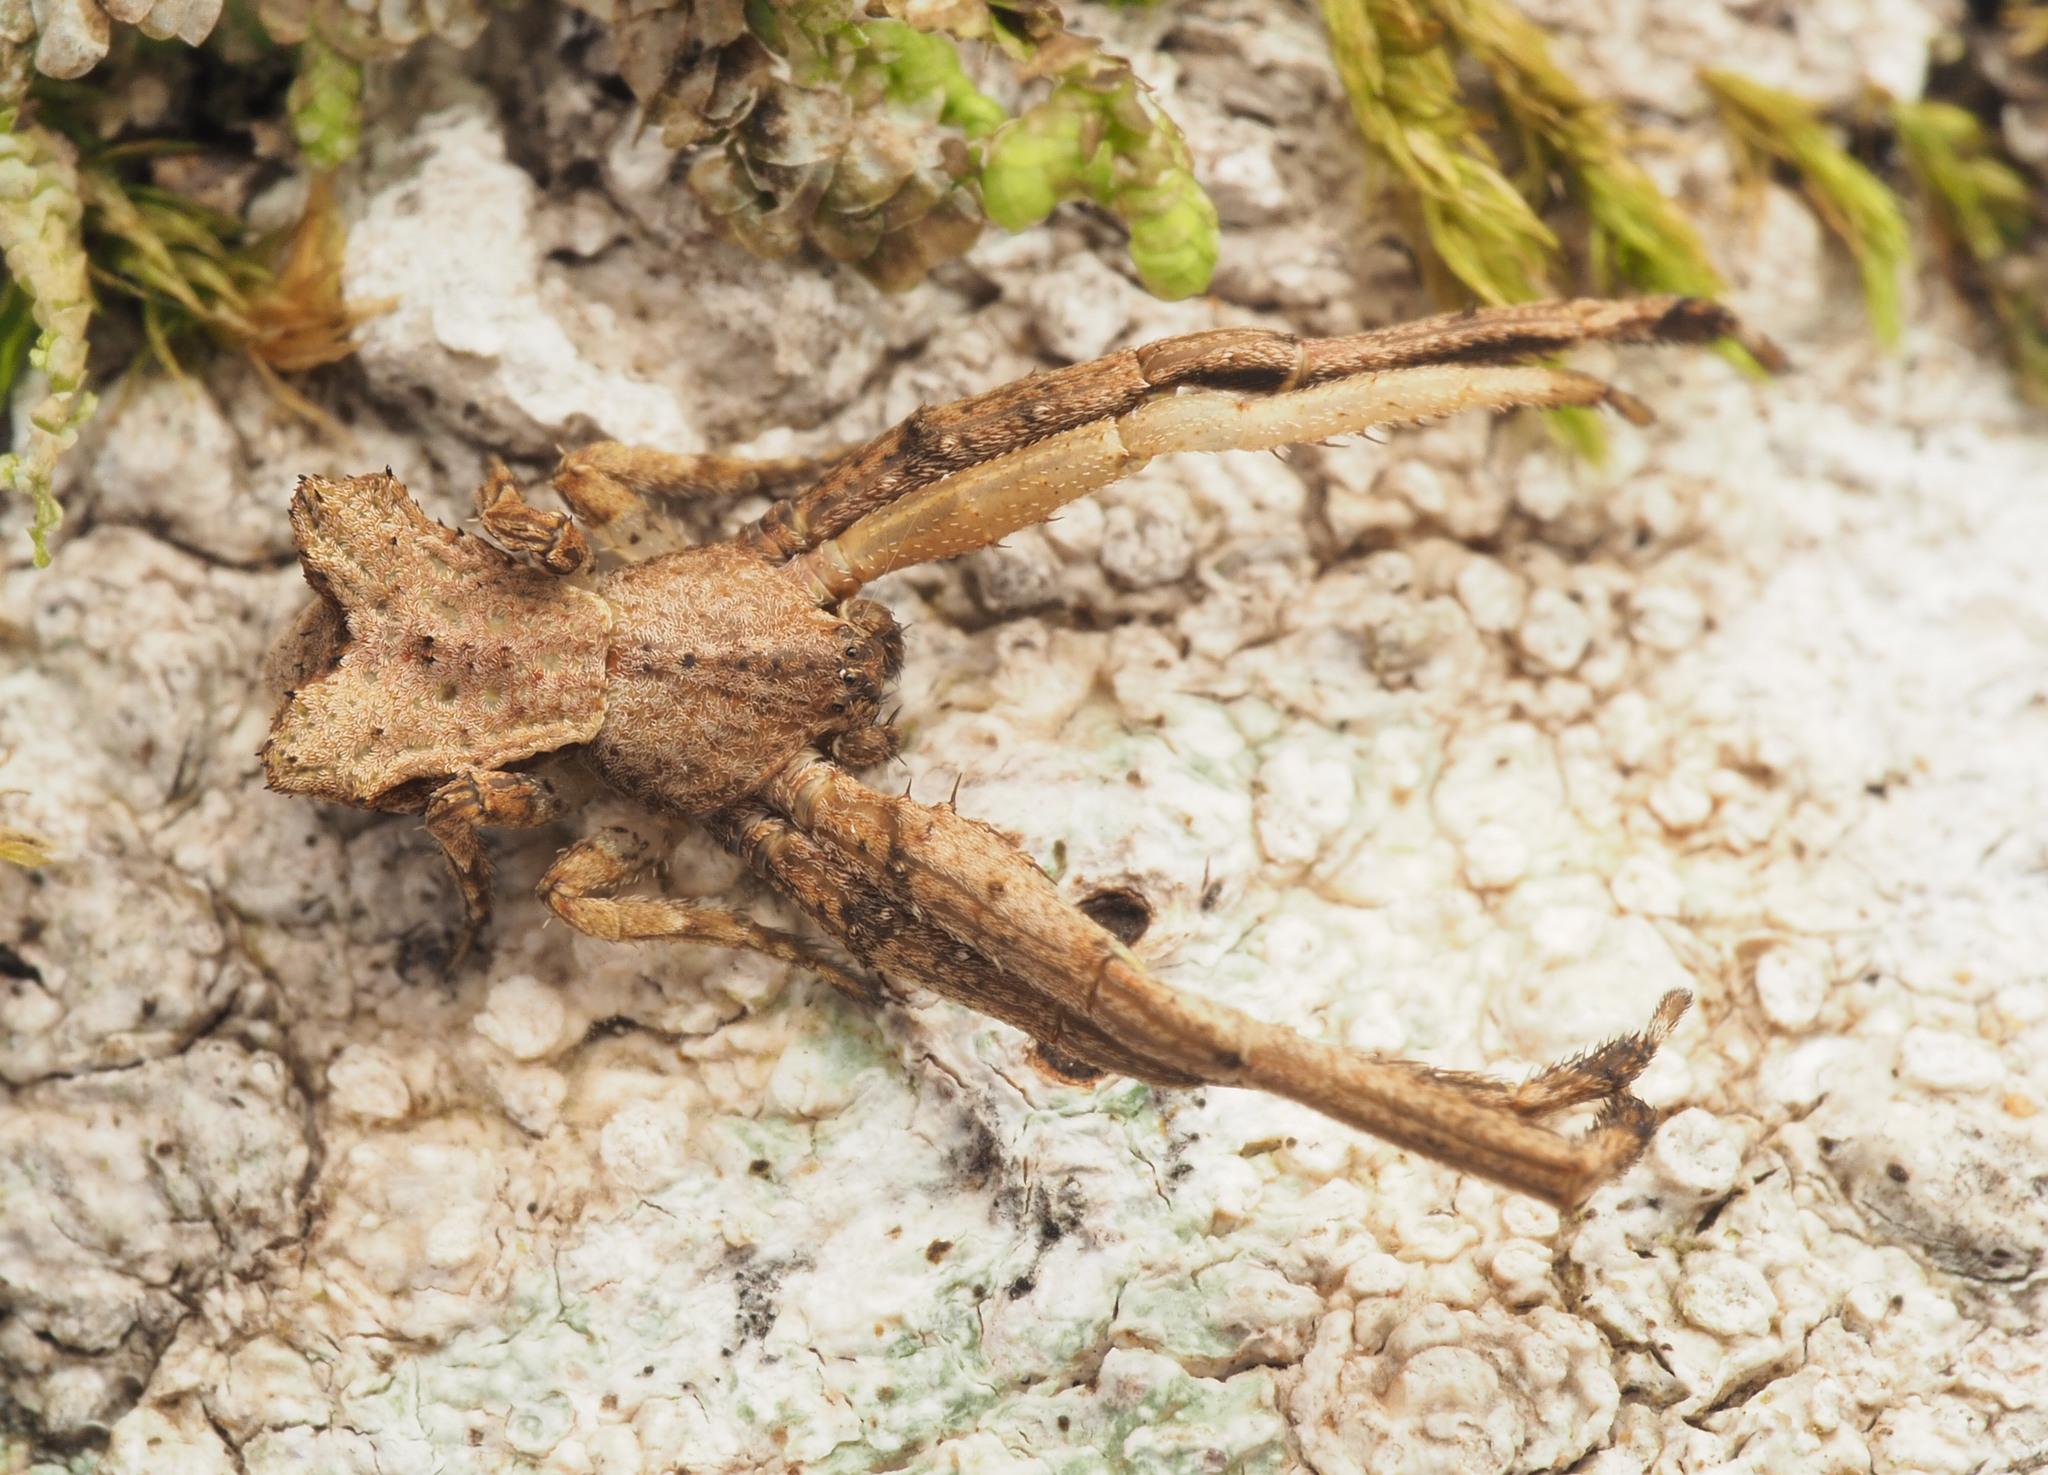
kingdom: Animalia
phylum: Arthropoda
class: Arachnida
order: Araneae
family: Thomisidae
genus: Sidymella
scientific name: Sidymella
